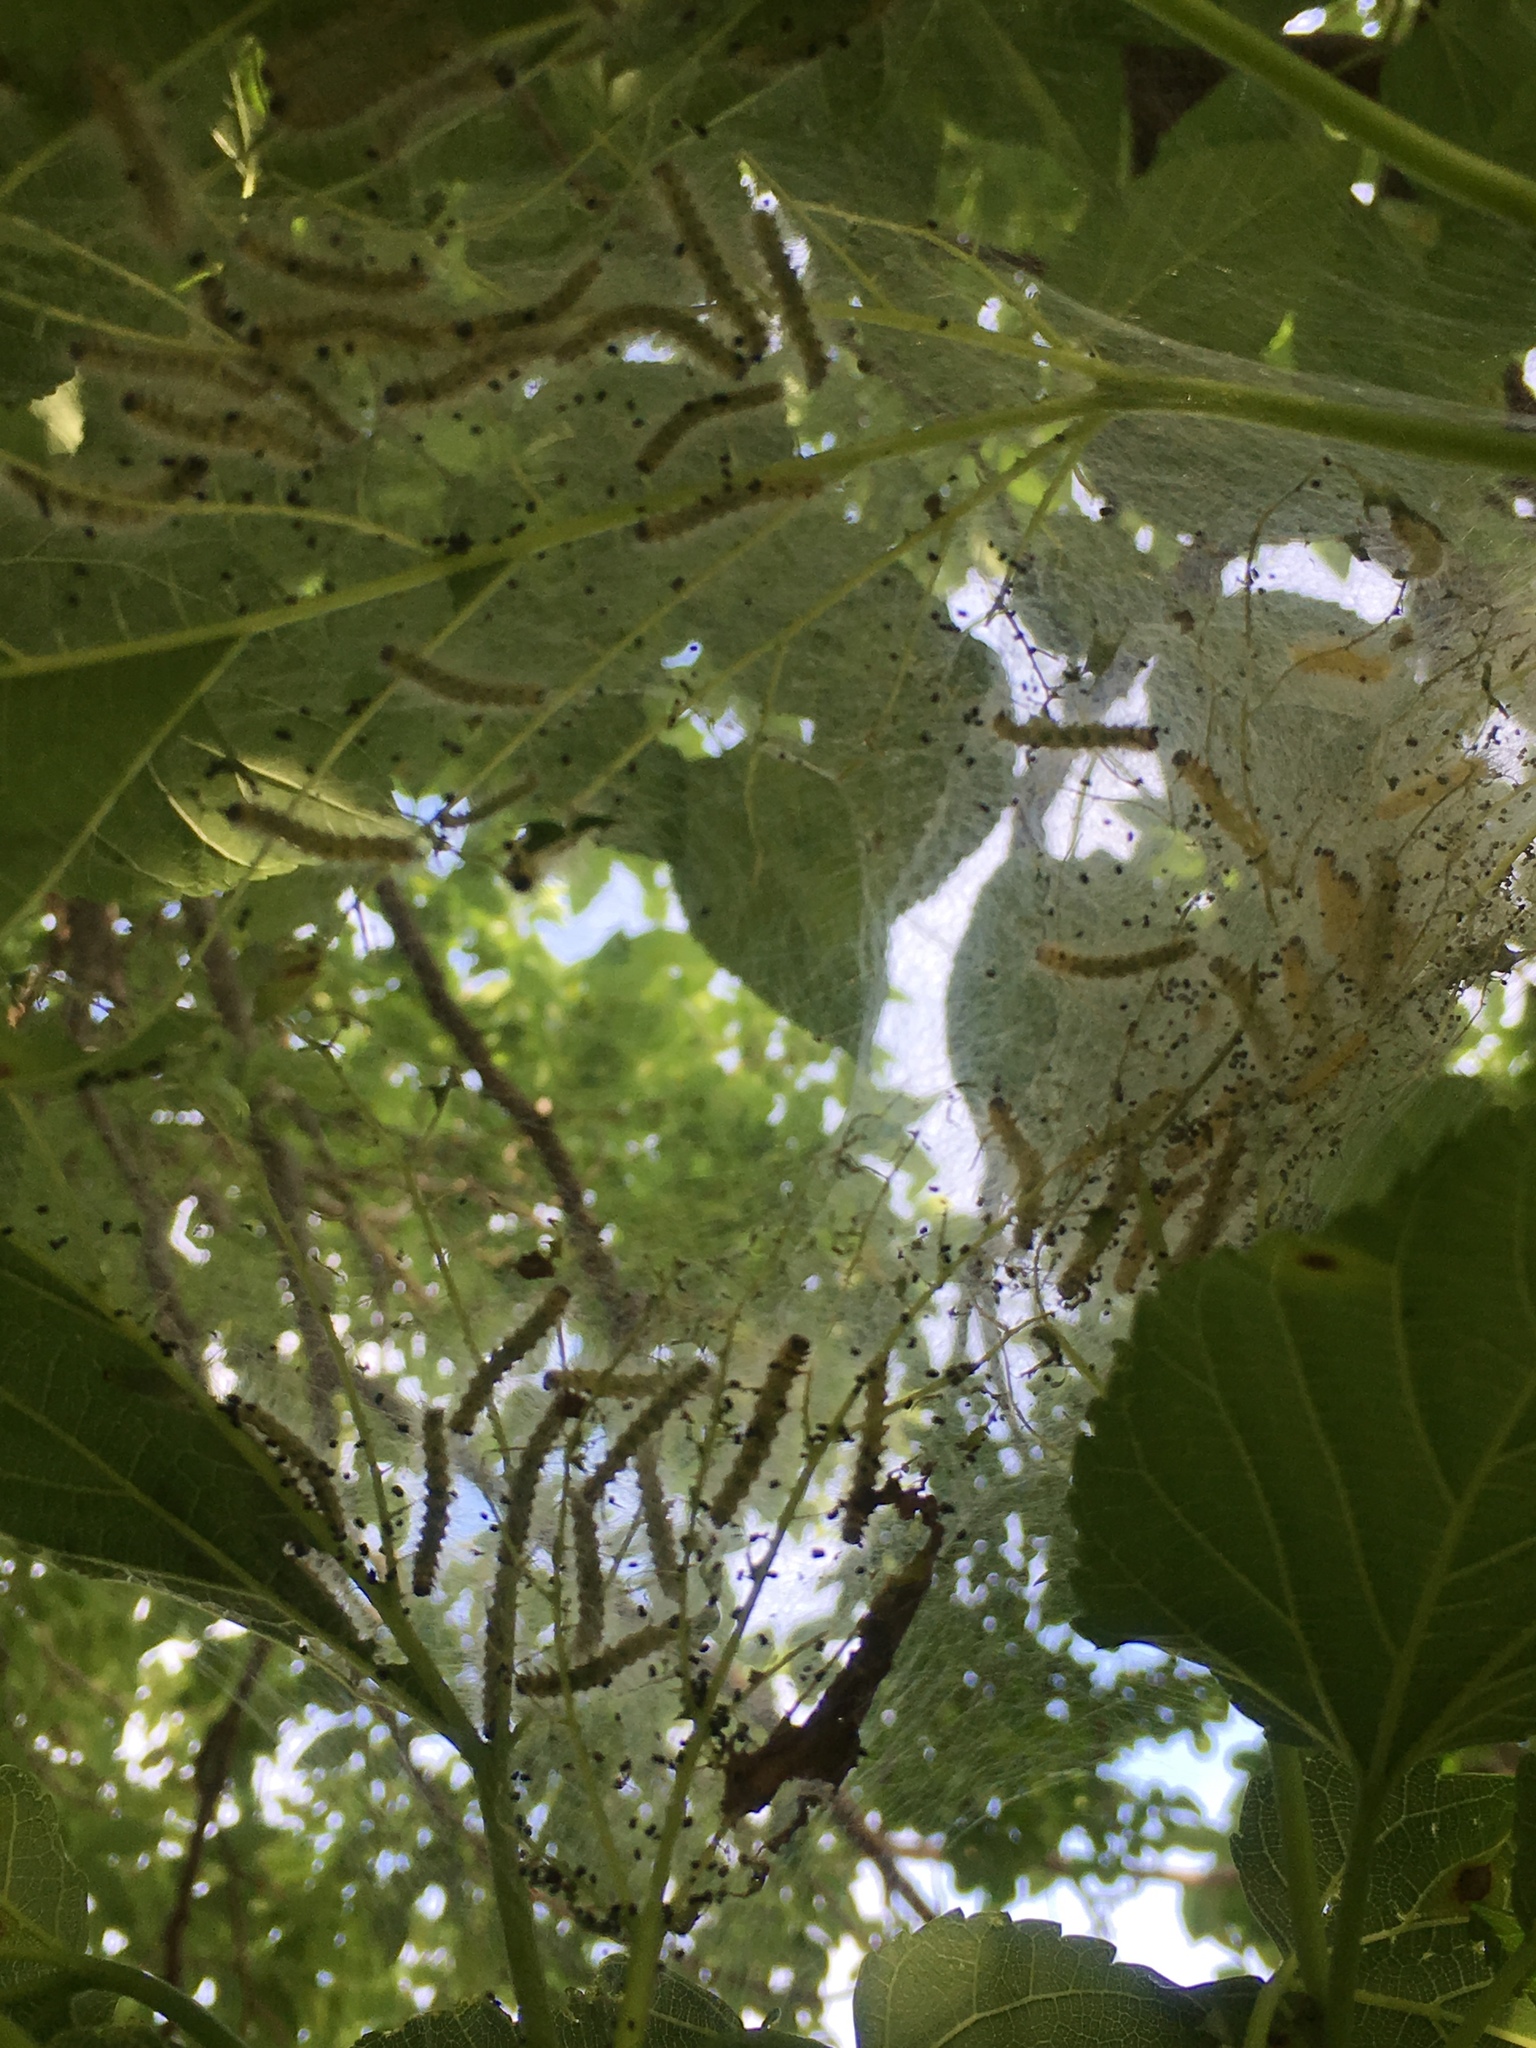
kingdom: Animalia
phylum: Arthropoda
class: Insecta
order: Lepidoptera
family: Erebidae
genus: Hyphantria
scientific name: Hyphantria cunea
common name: American white moth
